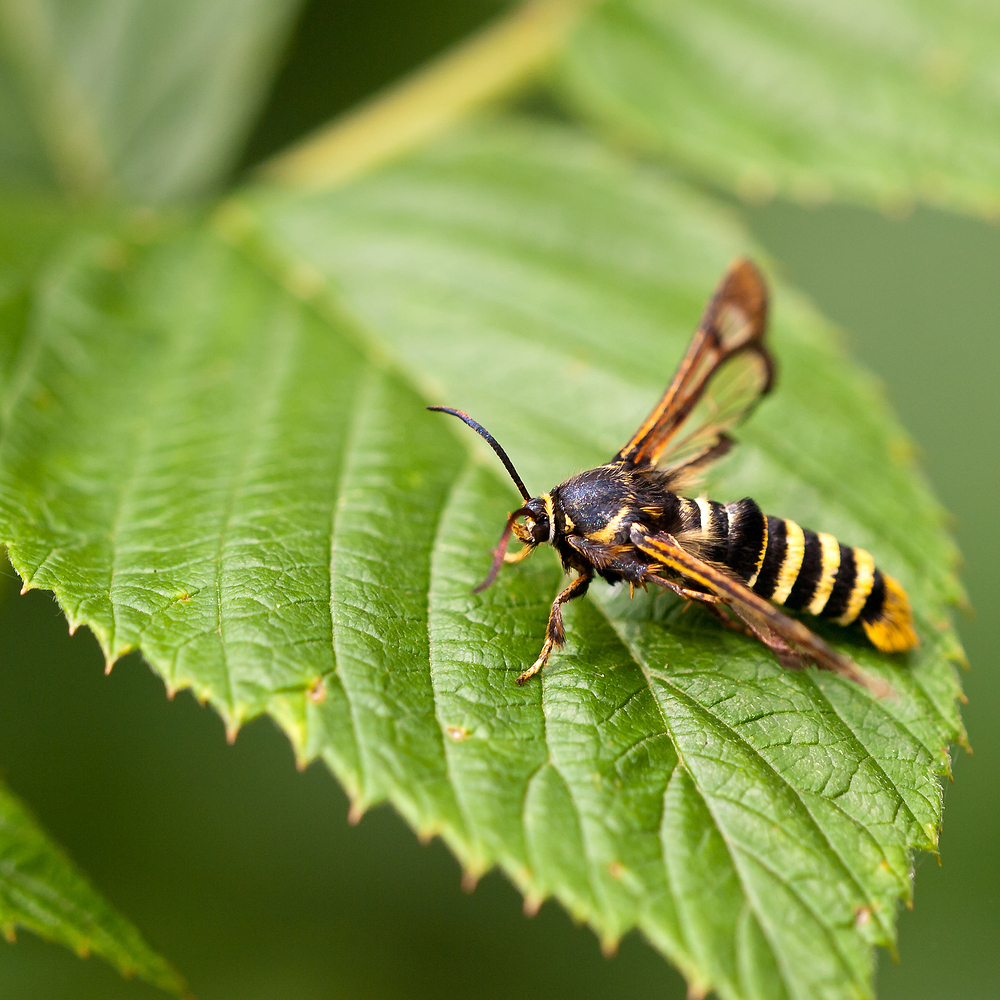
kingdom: Animalia
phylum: Arthropoda
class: Insecta
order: Lepidoptera
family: Sesiidae
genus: Pennisetia
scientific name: Pennisetia hylaeiformis
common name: Raspberry clearwing
